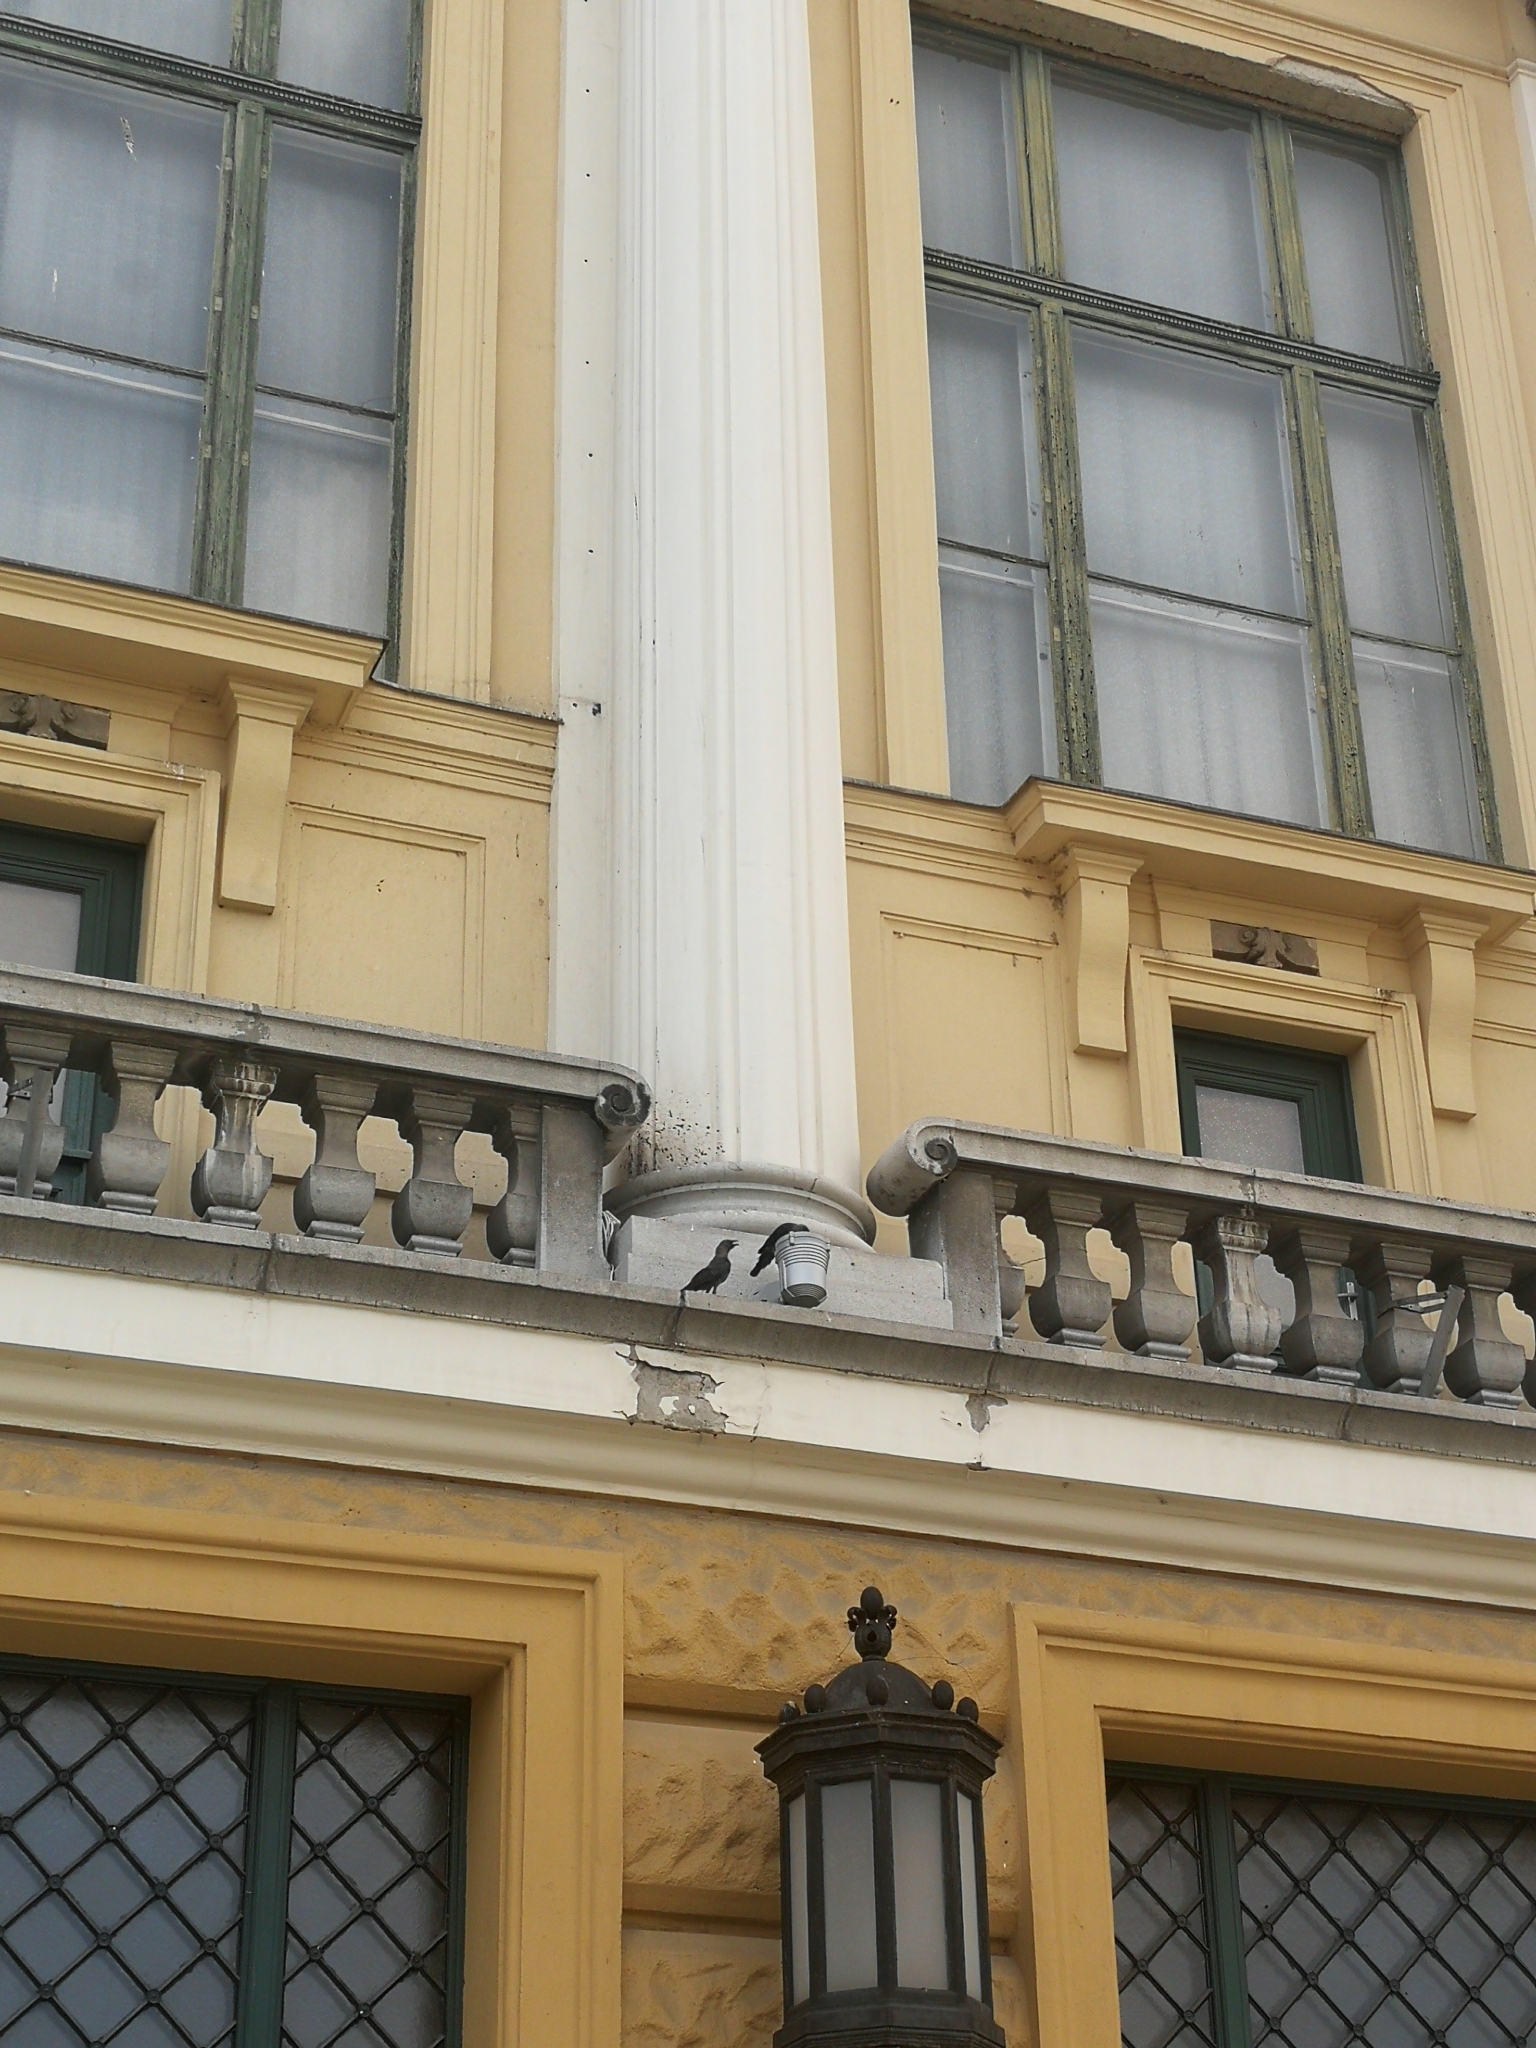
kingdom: Animalia
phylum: Chordata
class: Aves
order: Passeriformes
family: Corvidae
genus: Coloeus
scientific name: Coloeus monedula
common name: Western jackdaw
